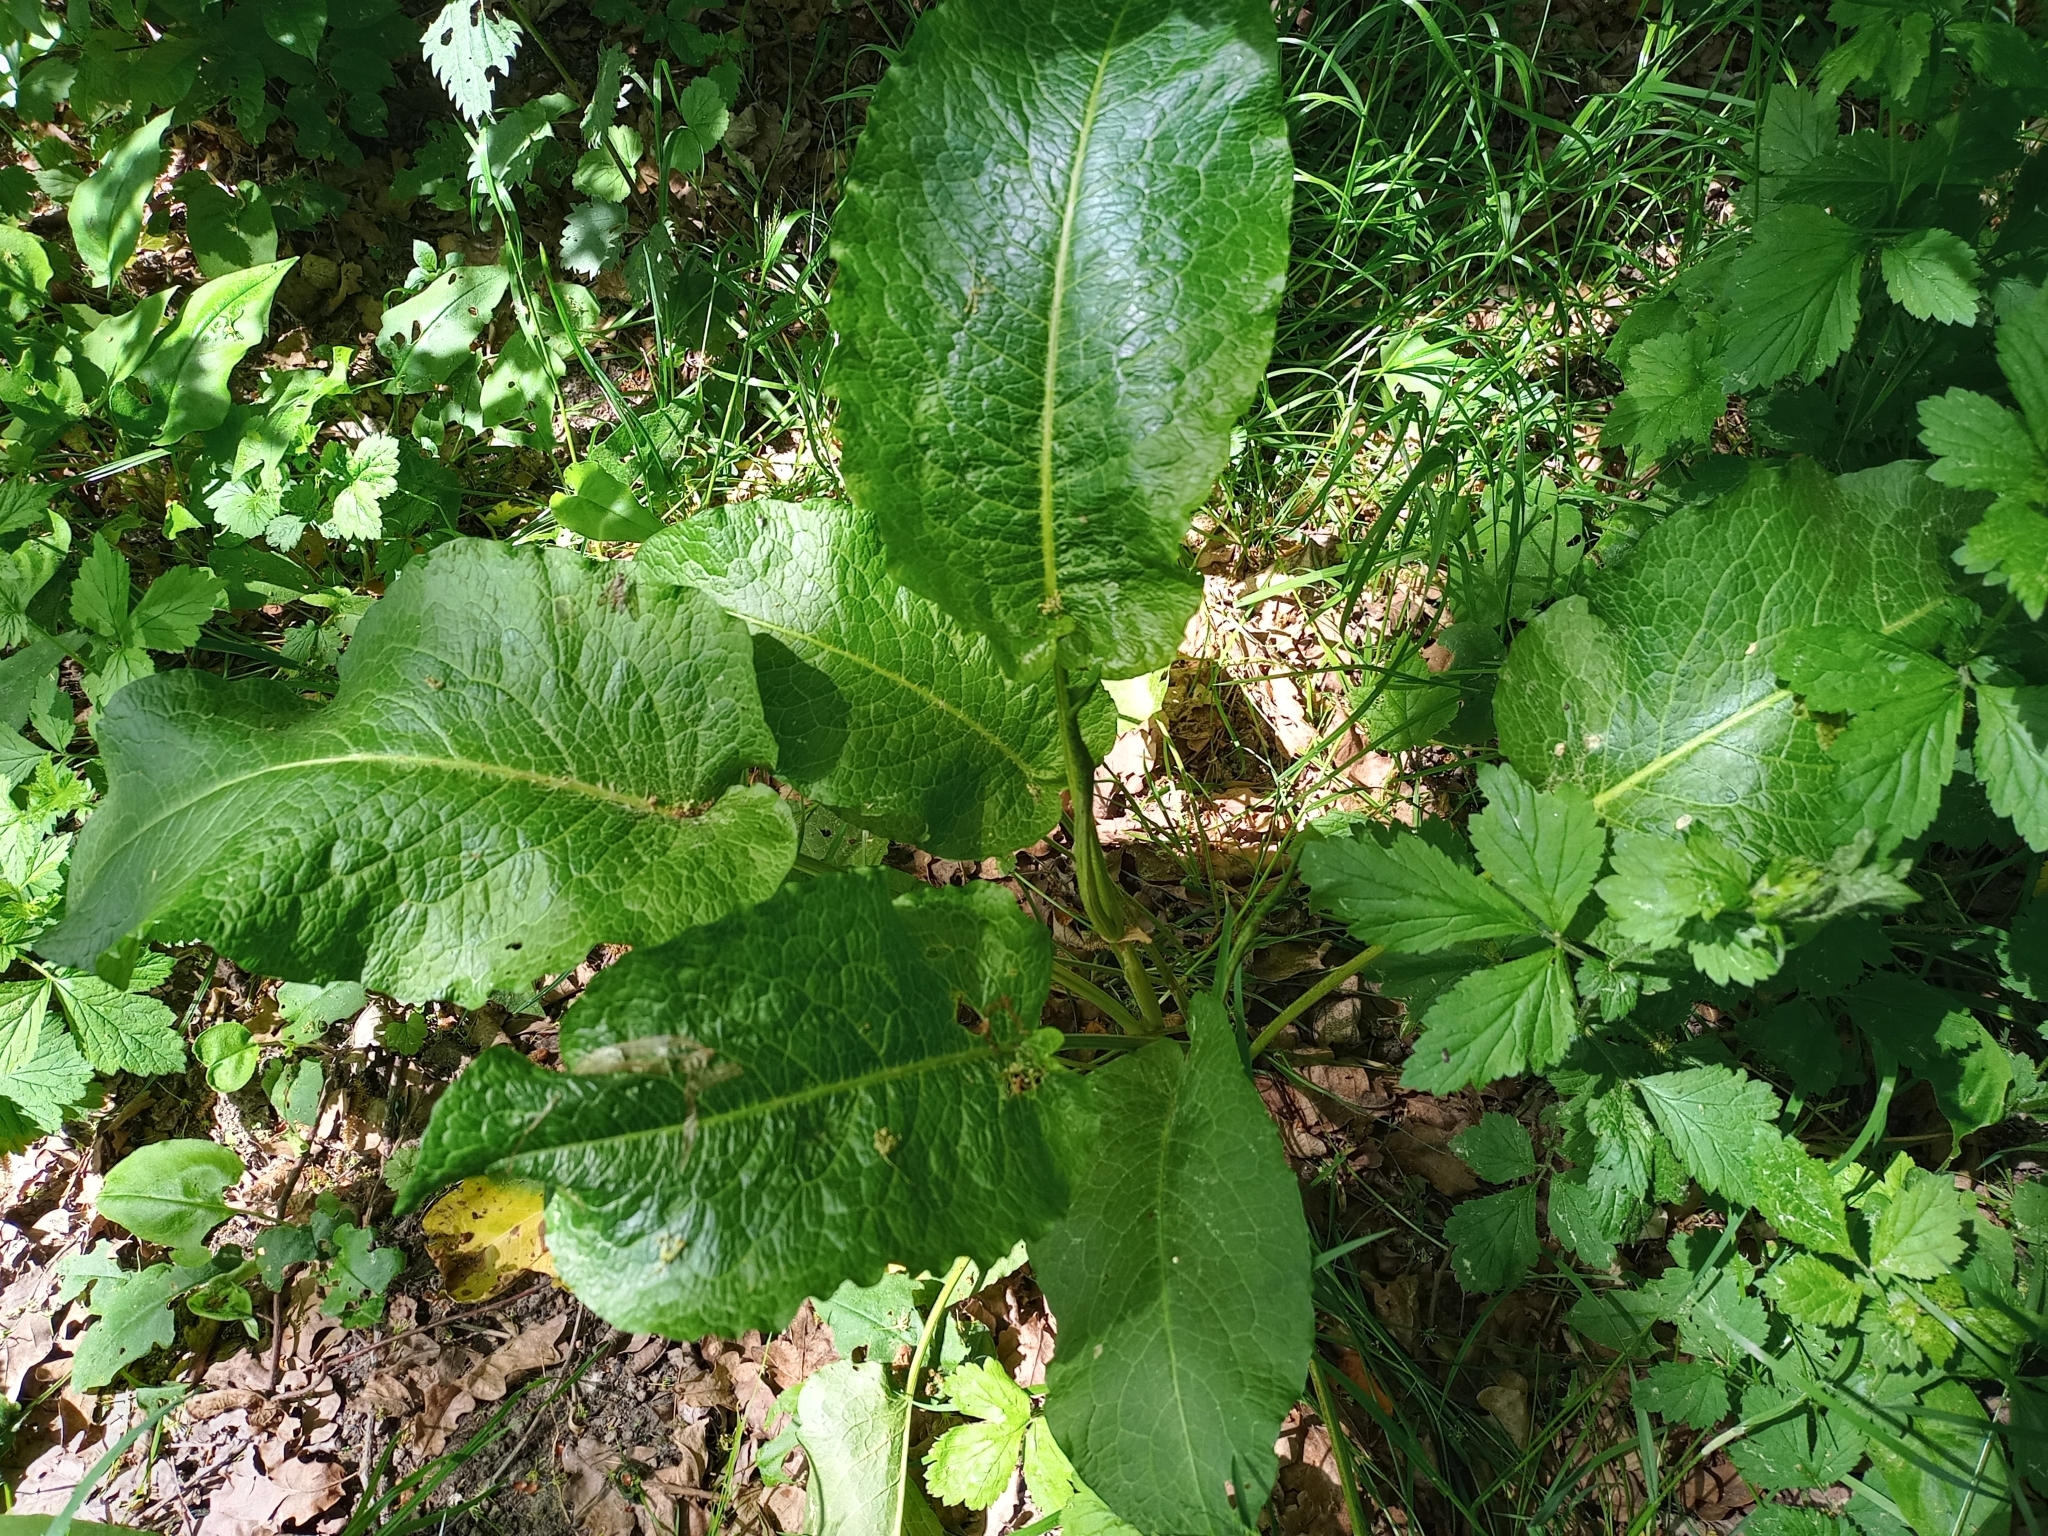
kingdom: Plantae
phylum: Tracheophyta
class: Magnoliopsida
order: Caryophyllales
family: Polygonaceae
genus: Rumex
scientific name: Rumex obtusifolius
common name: Bitter dock
